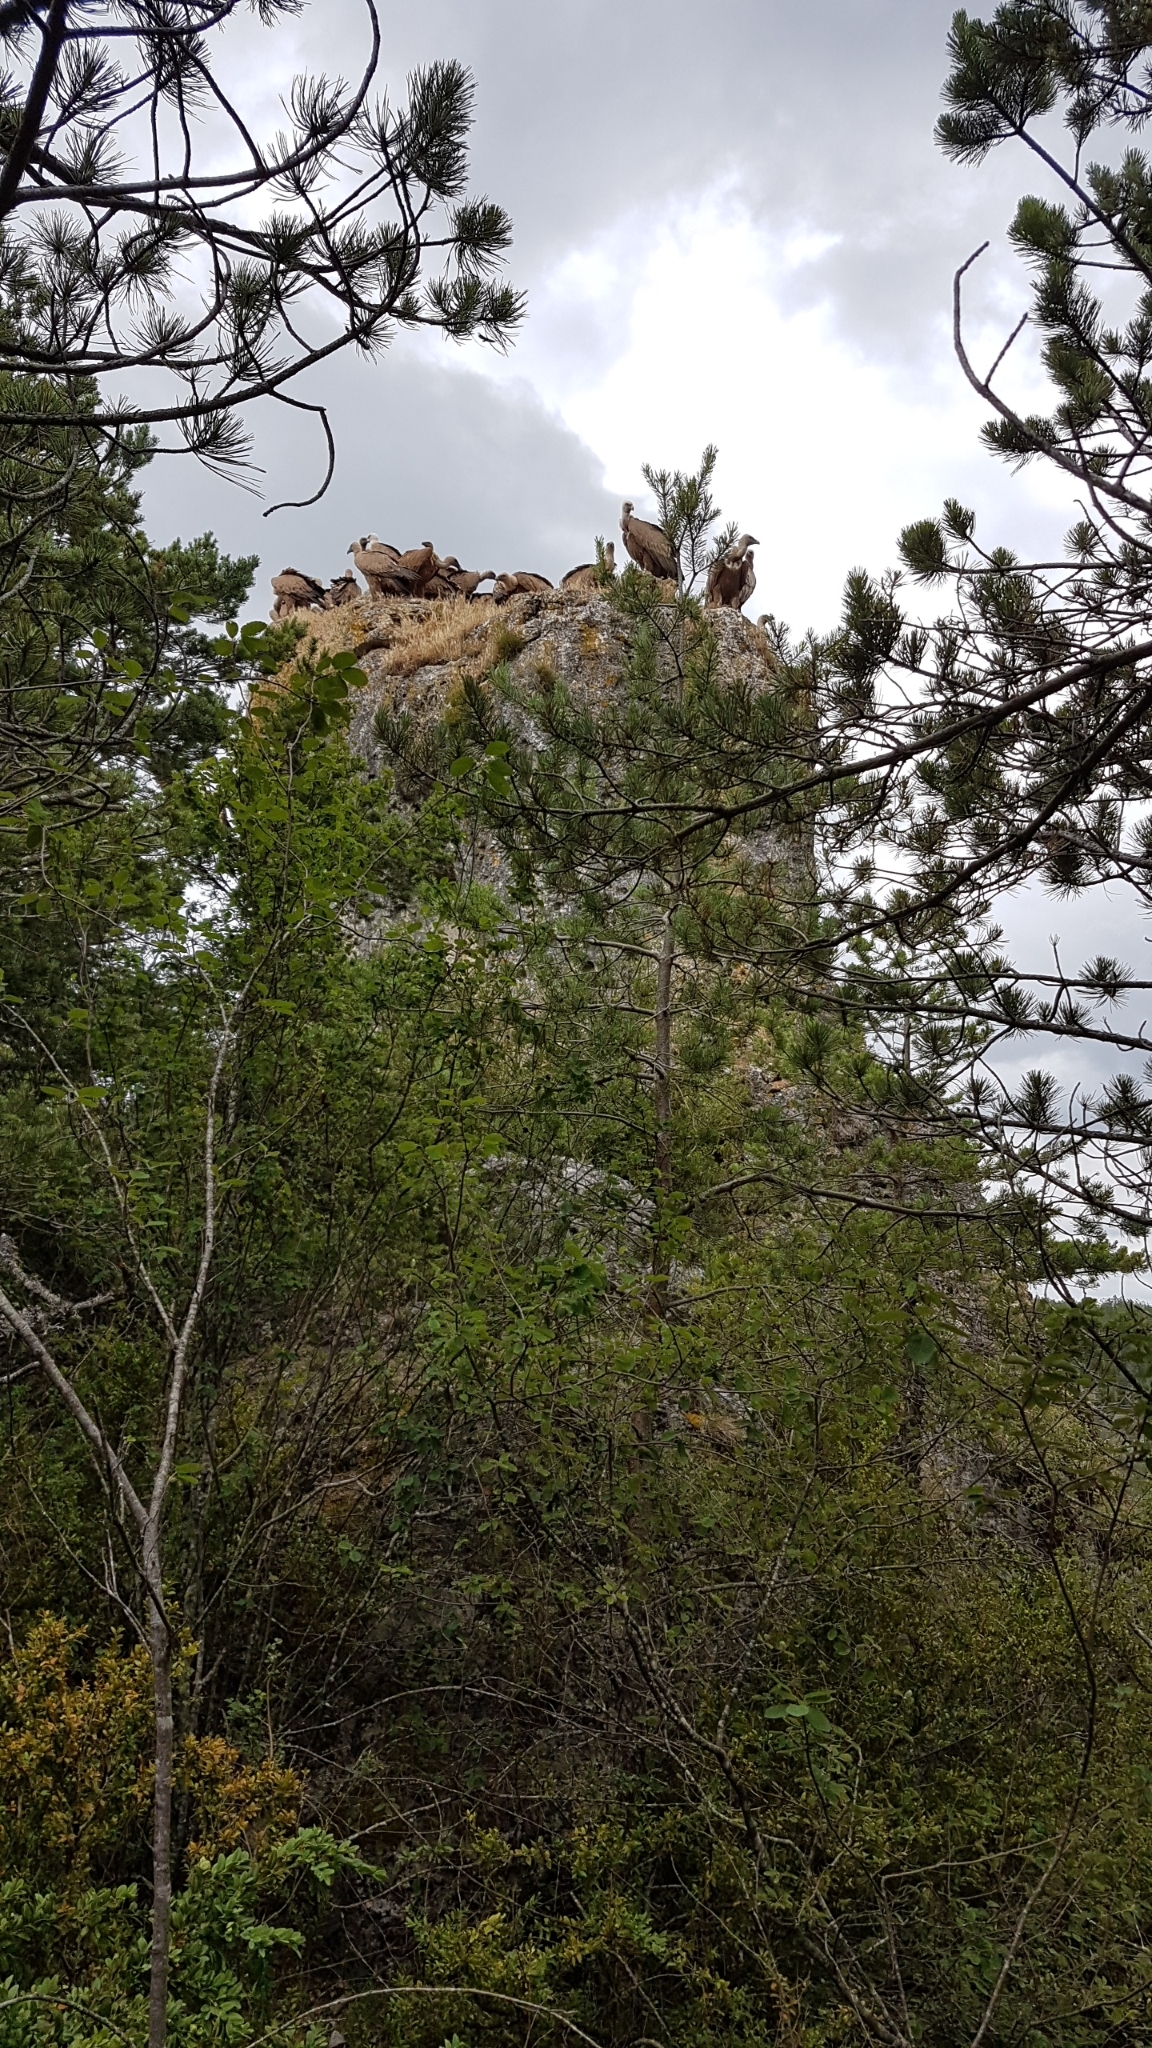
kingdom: Animalia
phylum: Chordata
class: Aves
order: Accipitriformes
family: Accipitridae
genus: Gyps
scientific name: Gyps fulvus
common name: Griffon vulture
